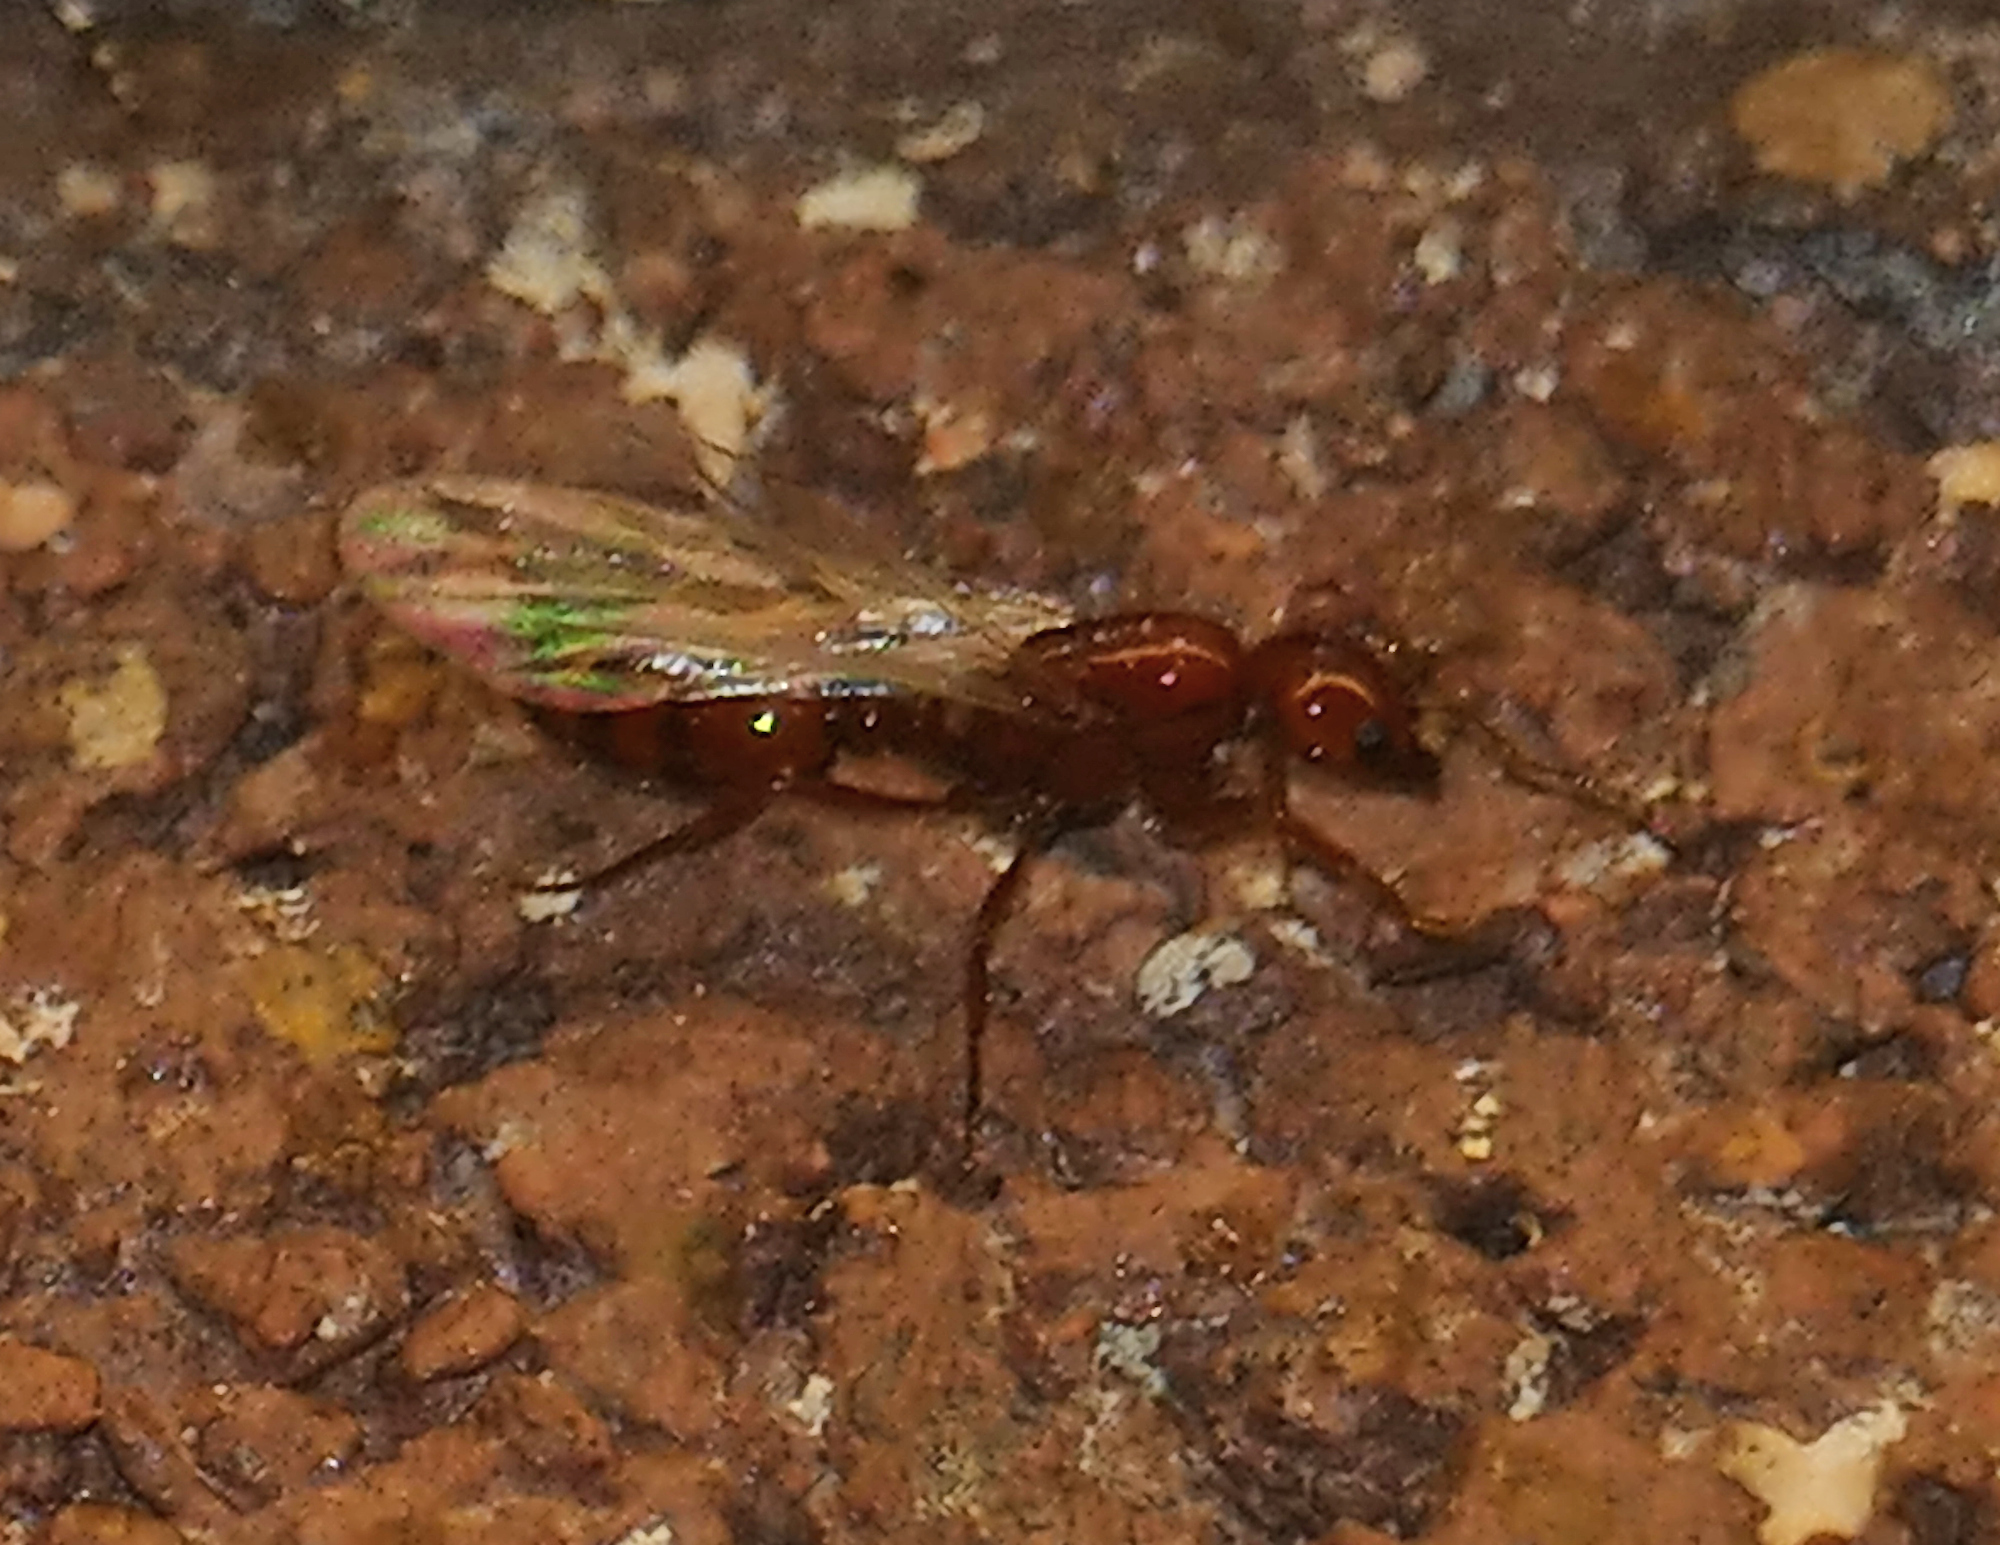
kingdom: Animalia
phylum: Arthropoda
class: Insecta
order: Hymenoptera
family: Formicidae
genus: Solenopsis
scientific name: Solenopsis amblychila
